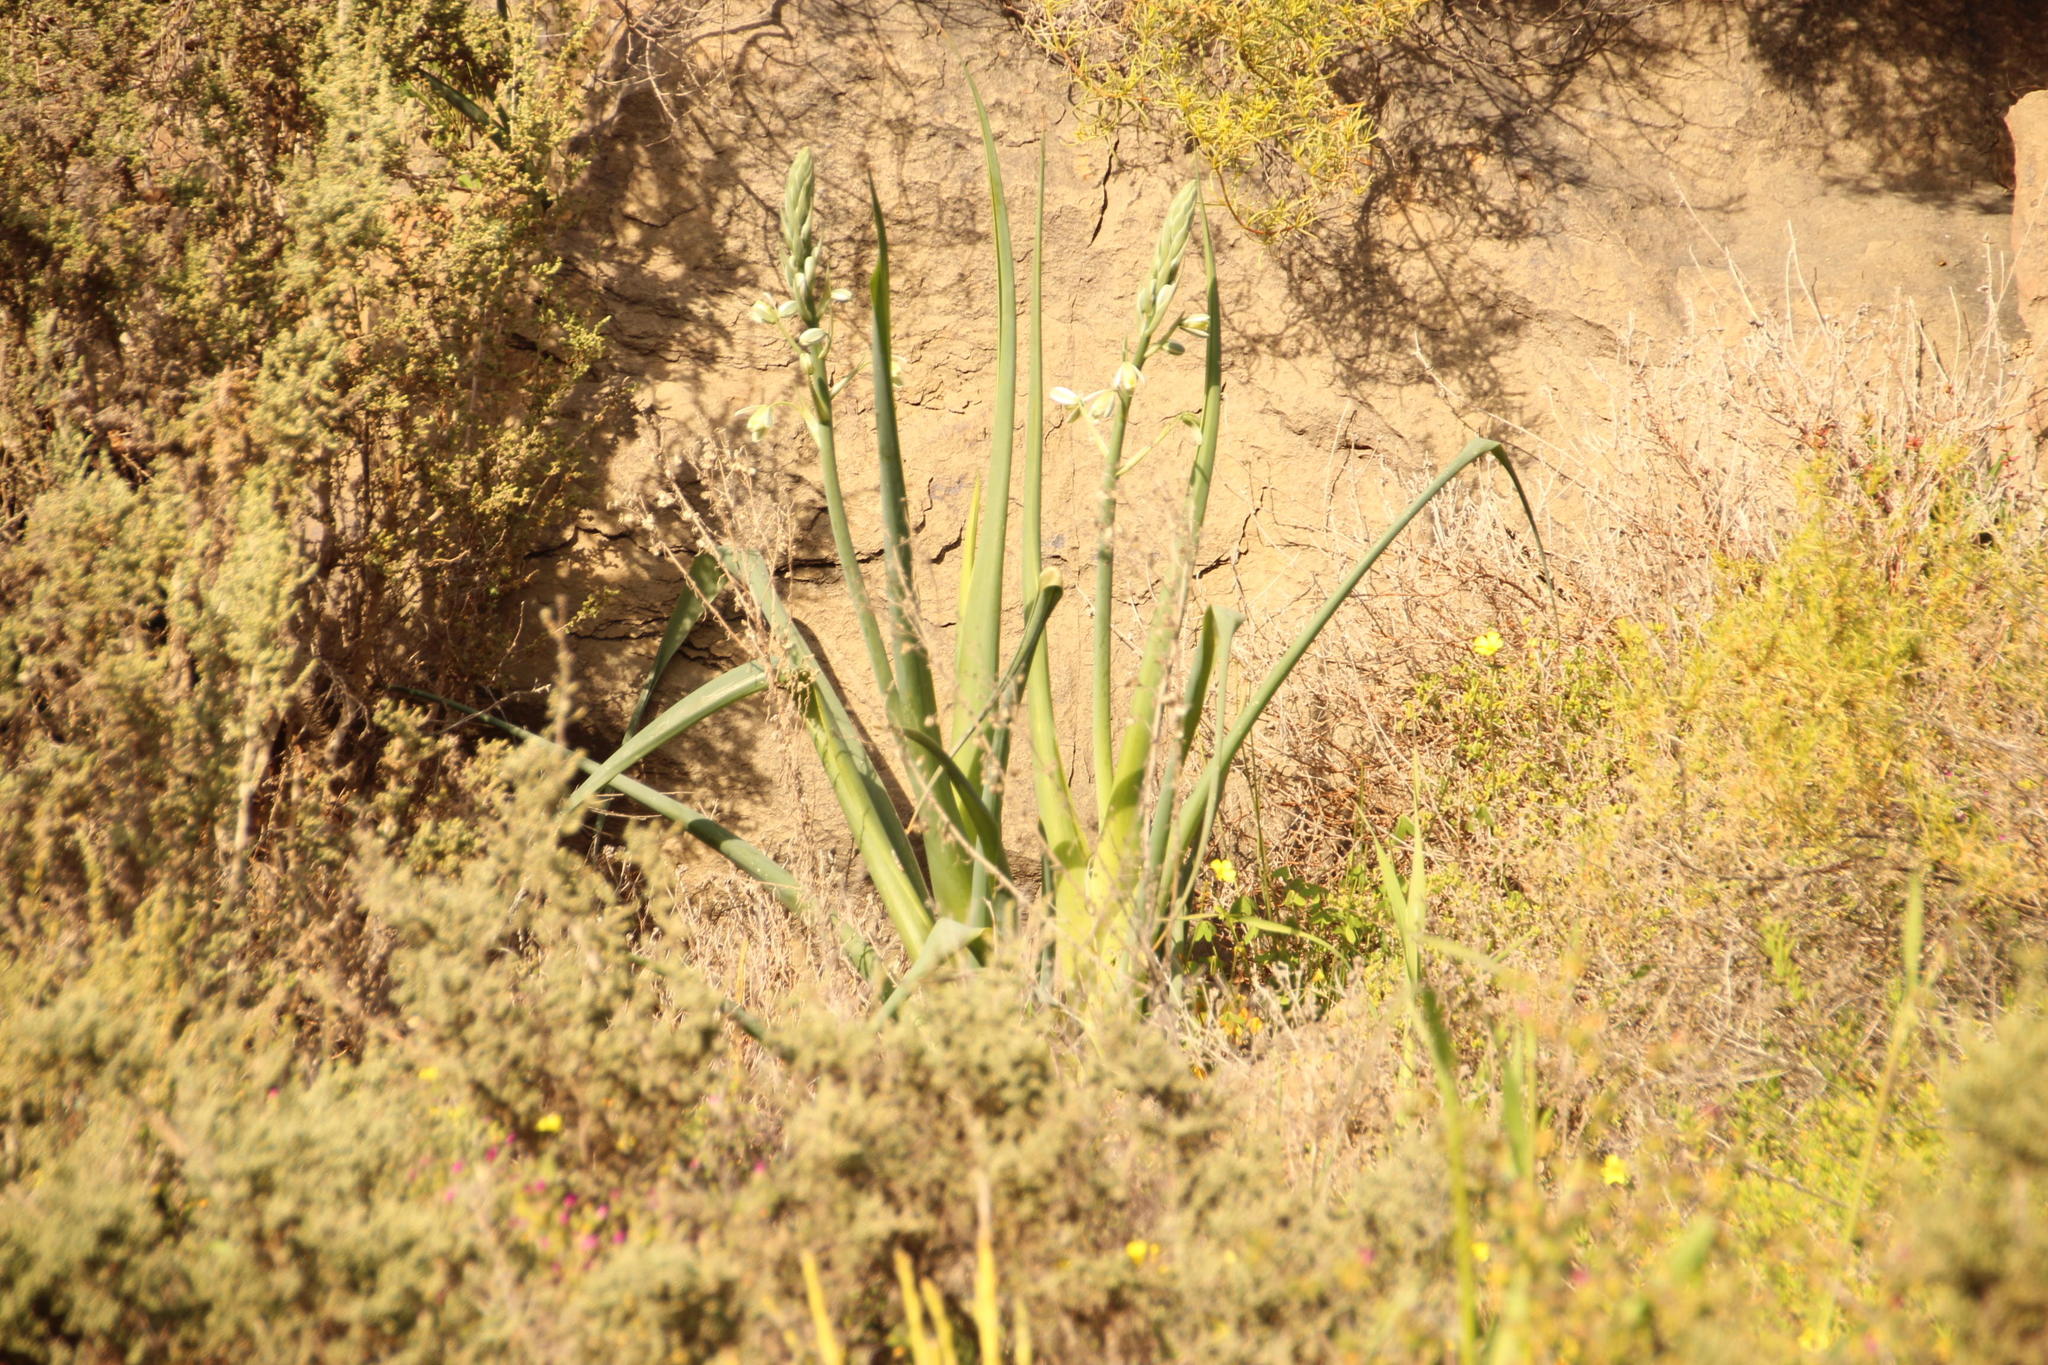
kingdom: Plantae
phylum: Tracheophyta
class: Liliopsida
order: Asparagales
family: Asparagaceae
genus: Albuca
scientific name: Albuca canadensis
